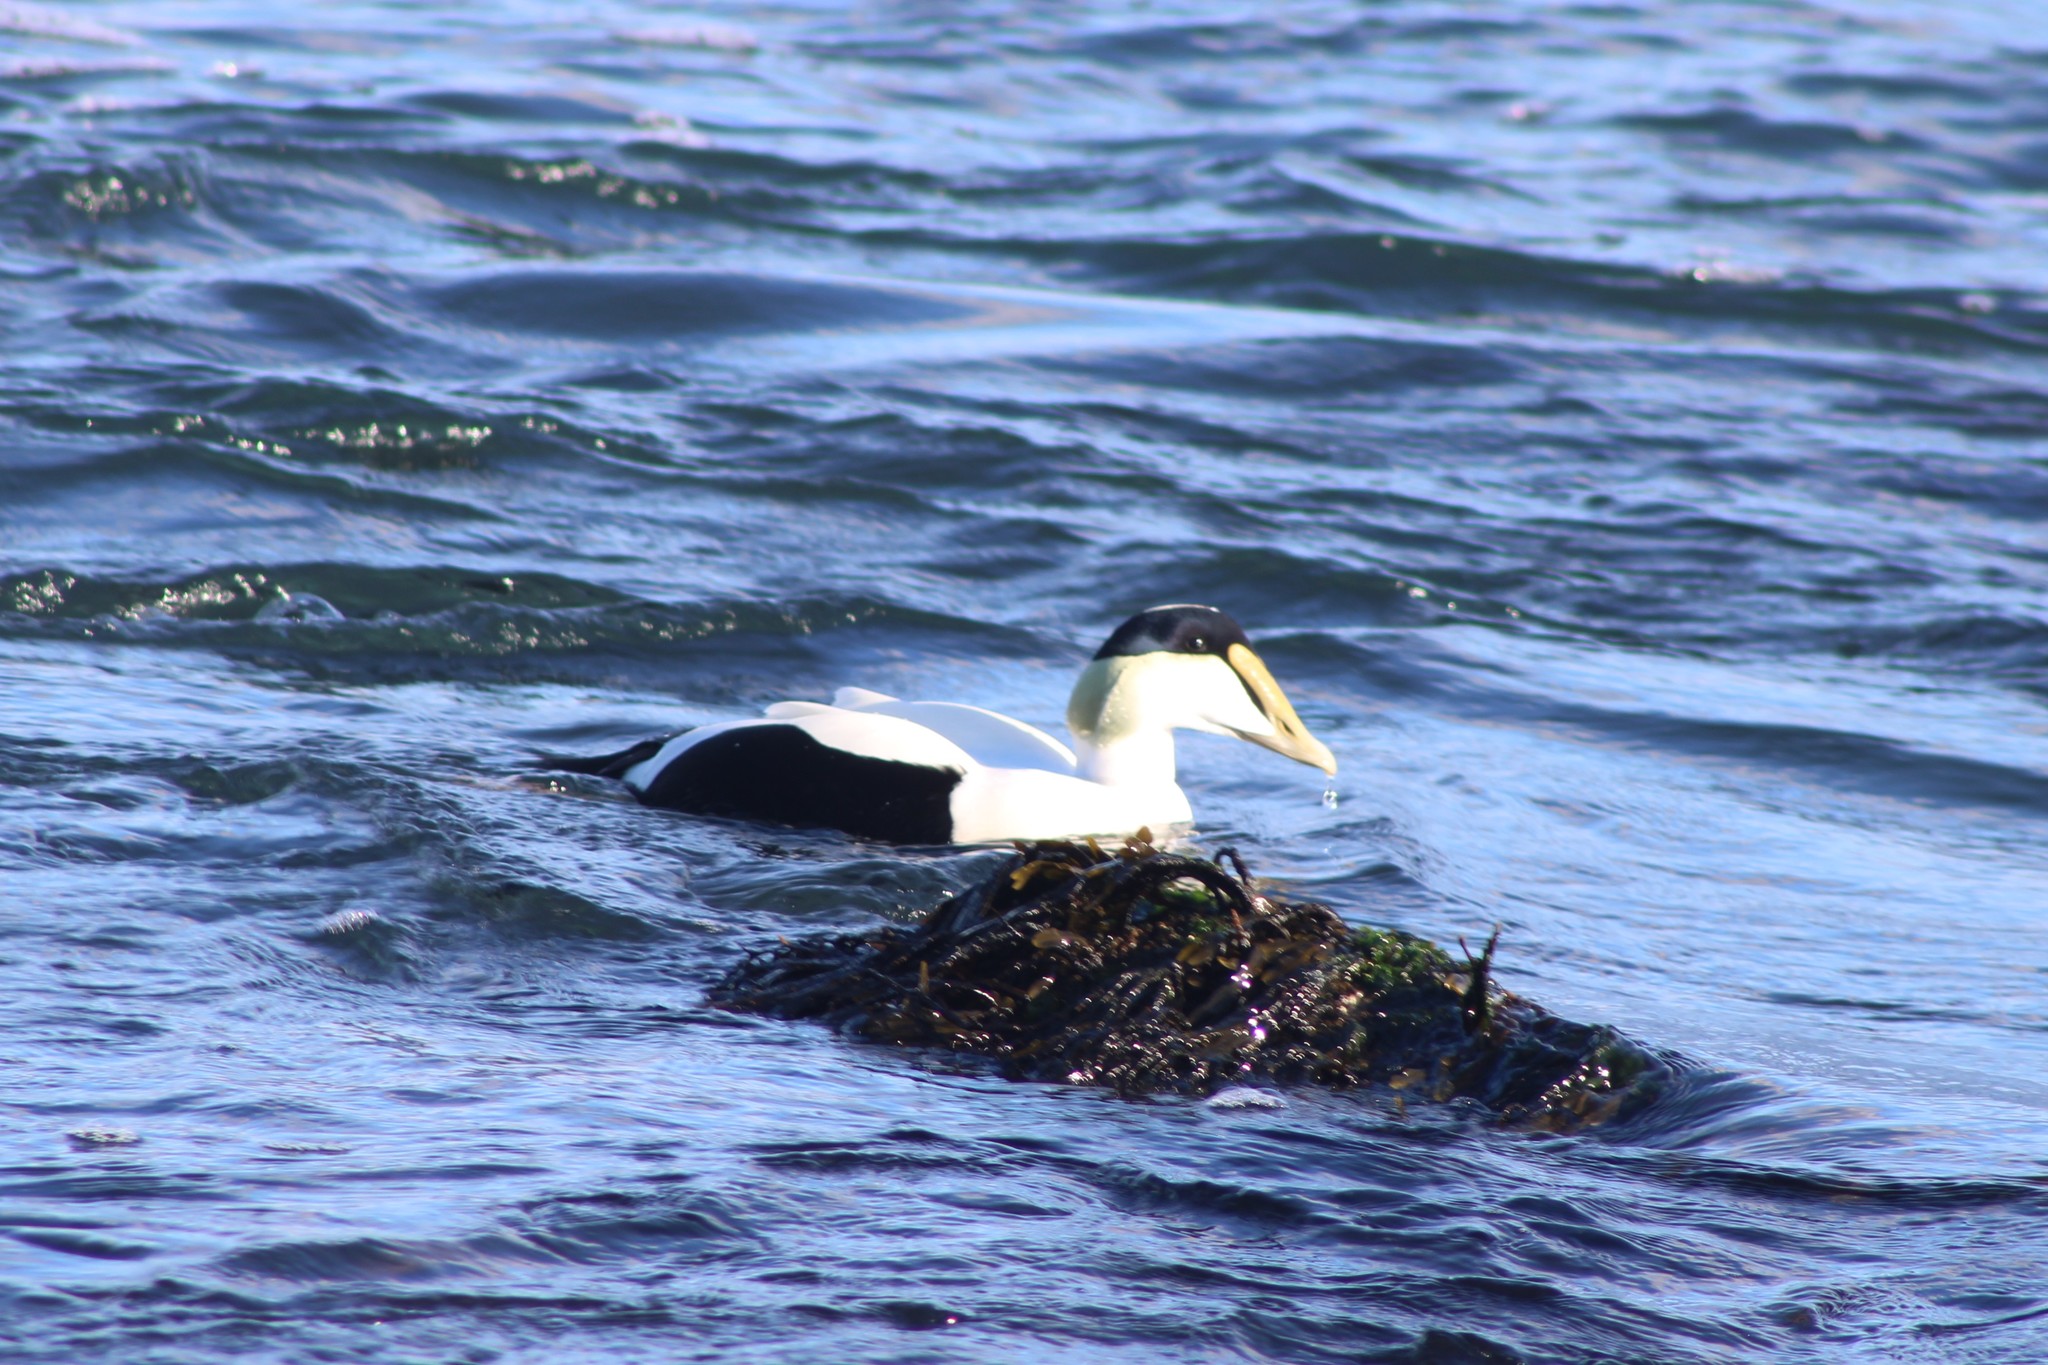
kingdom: Animalia
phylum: Chordata
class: Aves
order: Anseriformes
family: Anatidae
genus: Somateria
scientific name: Somateria mollissima
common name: Common eider
